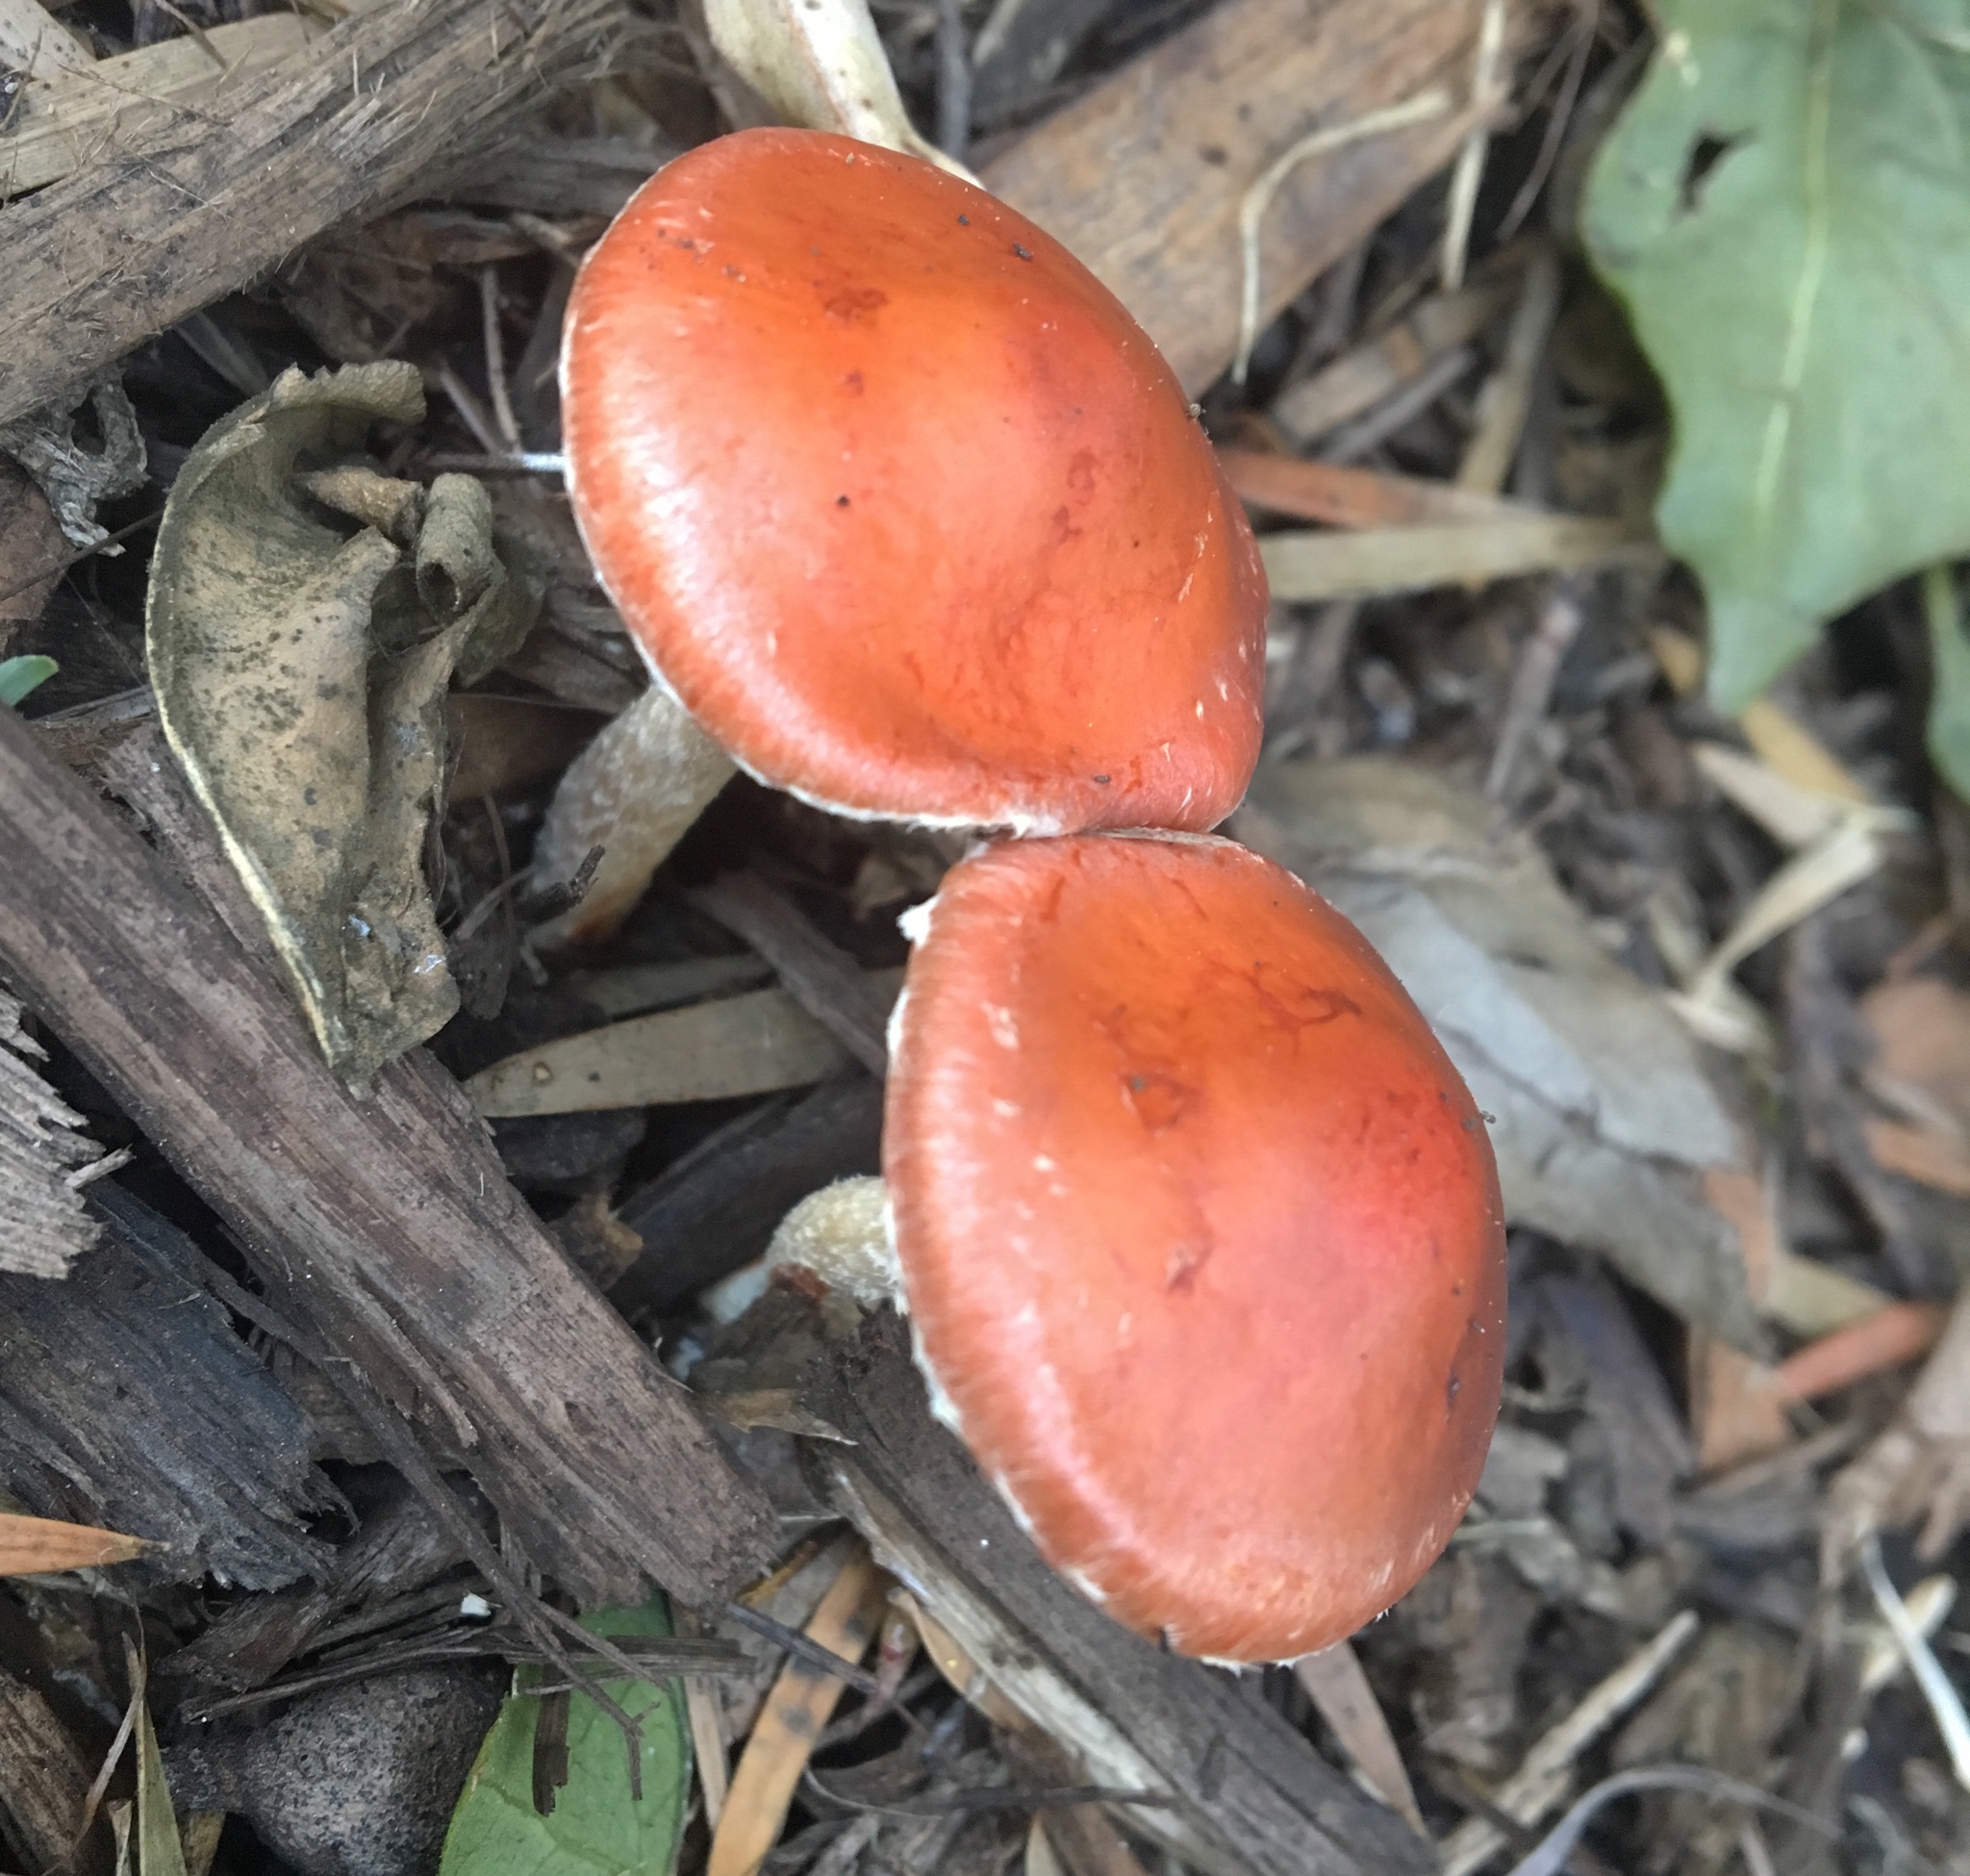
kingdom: Fungi
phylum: Basidiomycota
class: Agaricomycetes
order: Agaricales
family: Strophariaceae
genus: Leratiomyces
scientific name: Leratiomyces ceres
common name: Redlead roundhead
